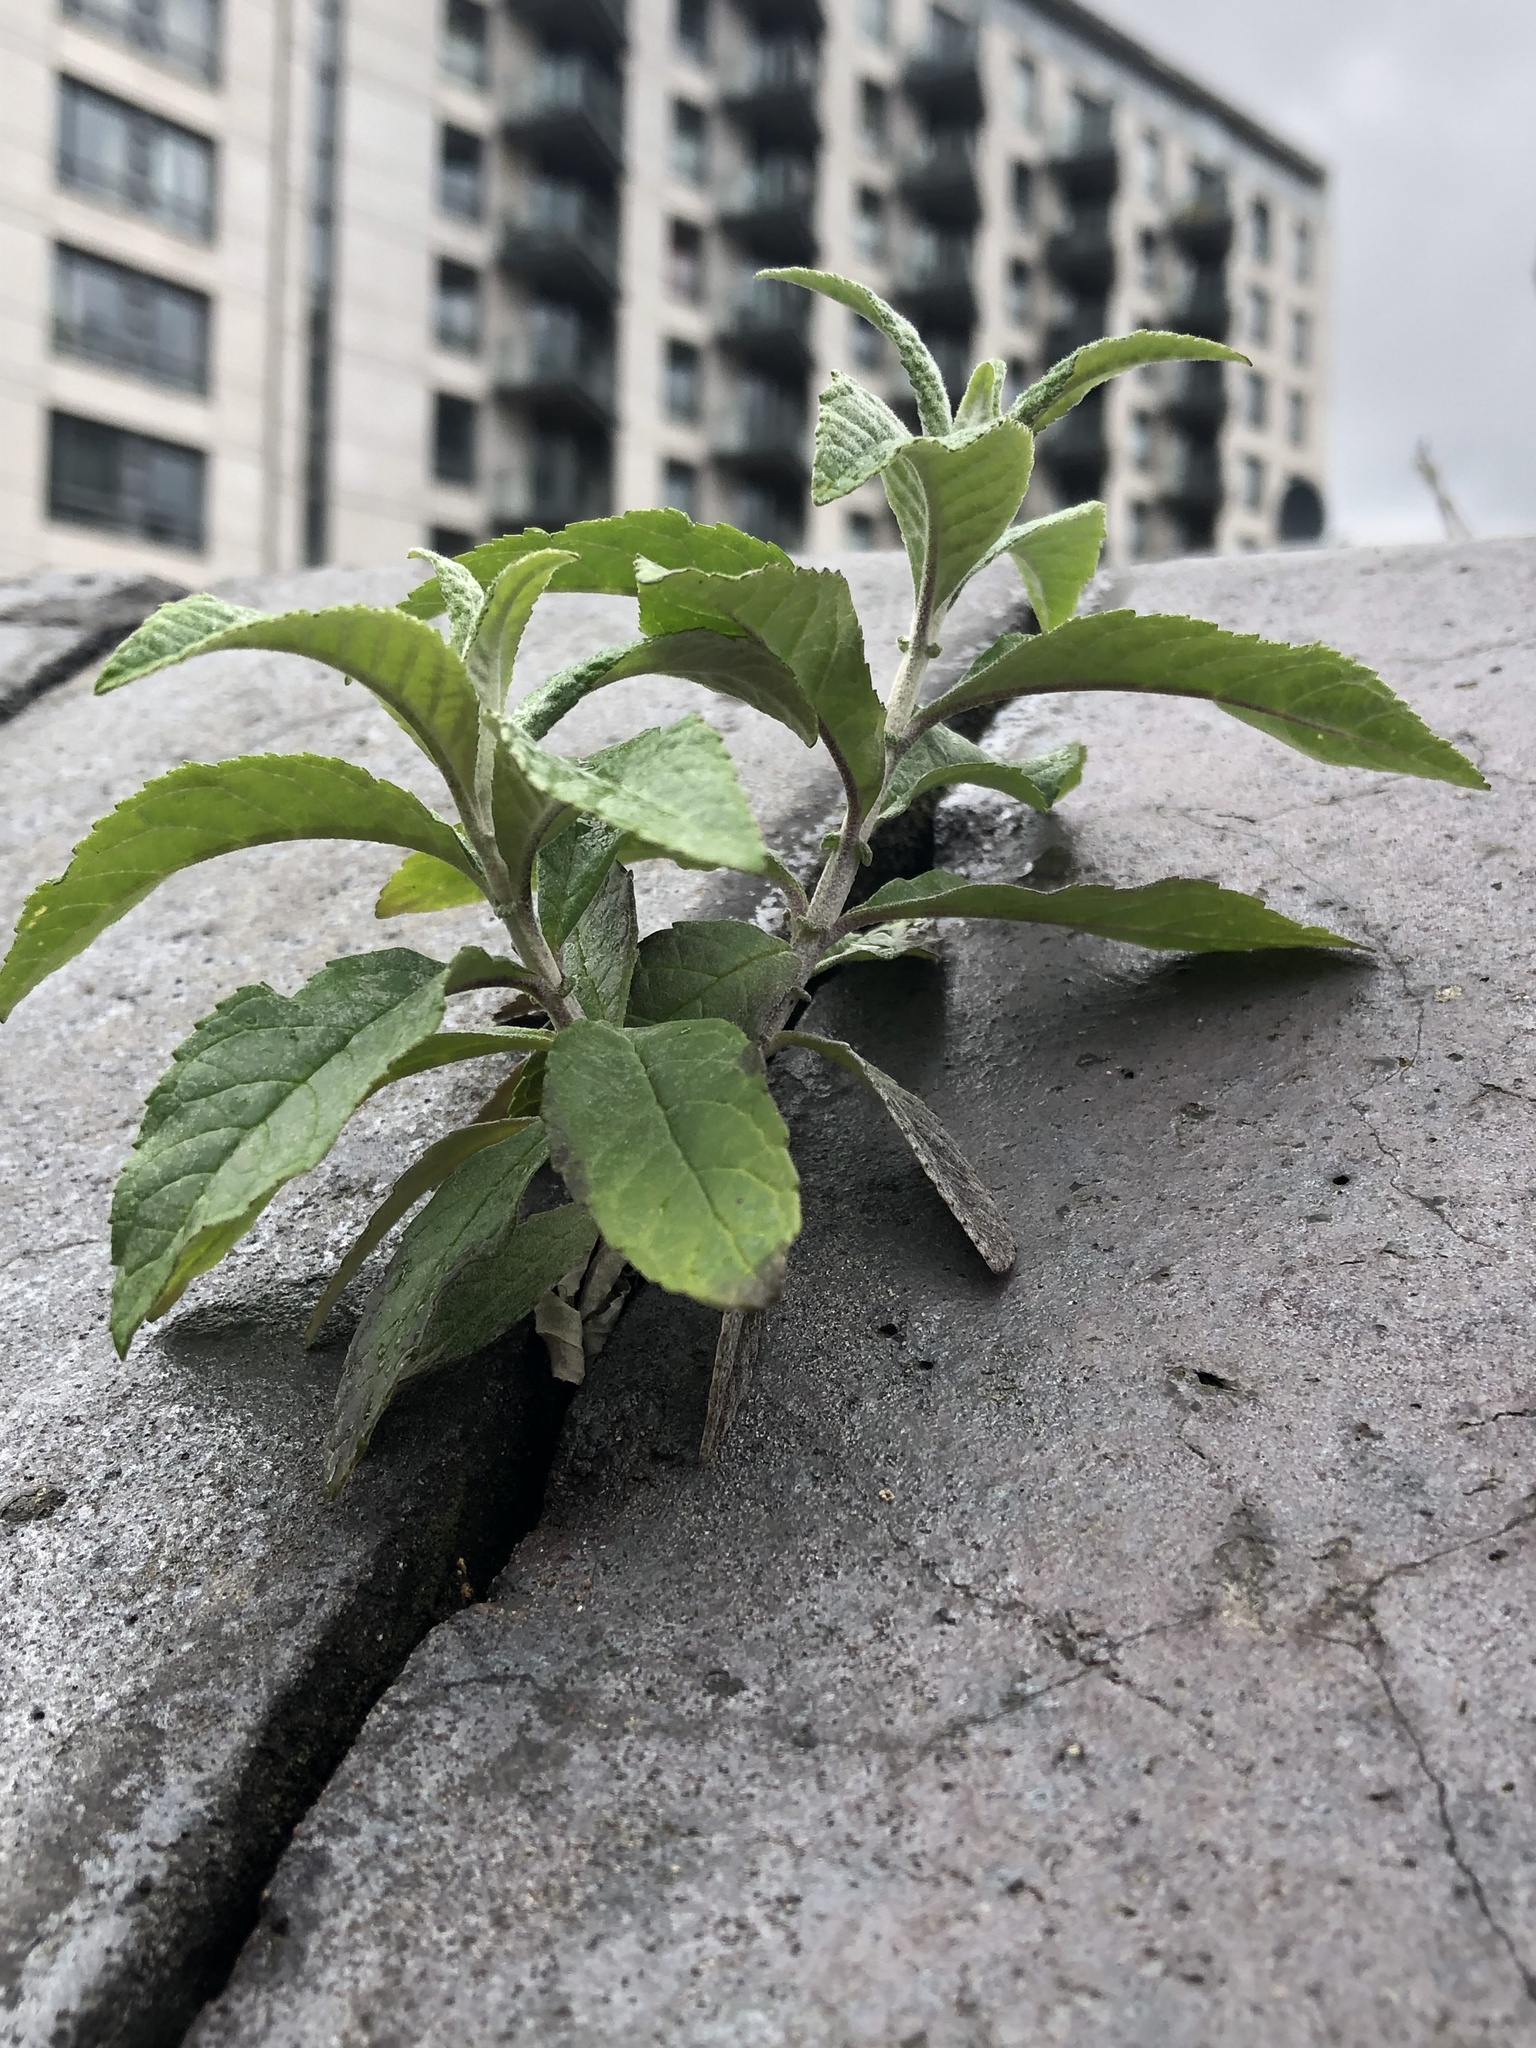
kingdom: Plantae
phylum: Tracheophyta
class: Magnoliopsida
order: Lamiales
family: Scrophulariaceae
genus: Buddleja
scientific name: Buddleja davidii
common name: Butterfly-bush
